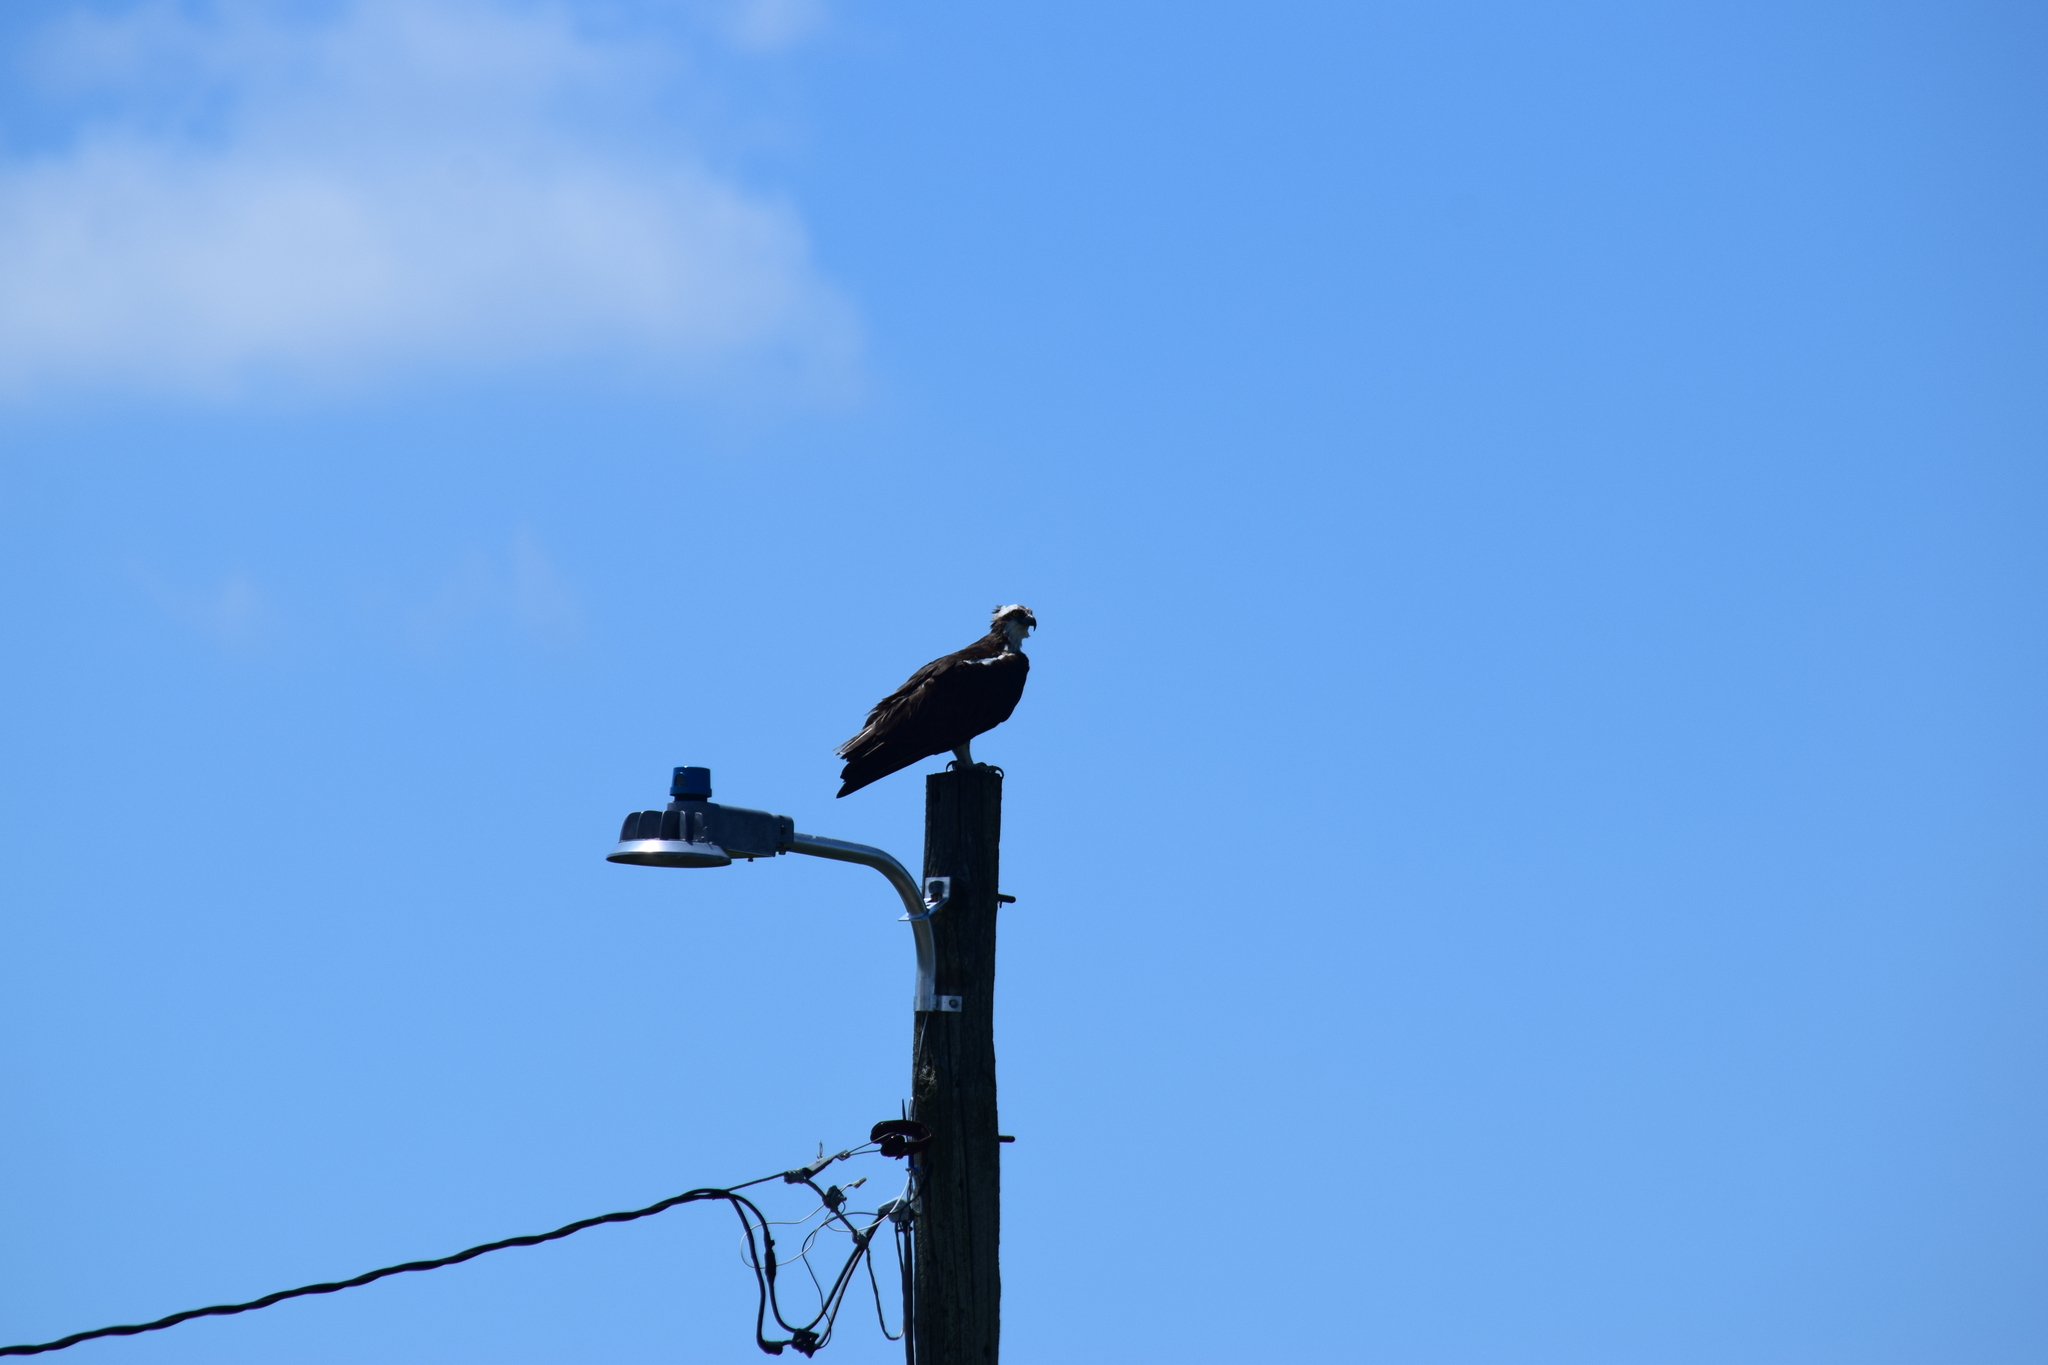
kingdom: Animalia
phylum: Chordata
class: Aves
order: Accipitriformes
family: Pandionidae
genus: Pandion
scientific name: Pandion haliaetus
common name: Osprey
